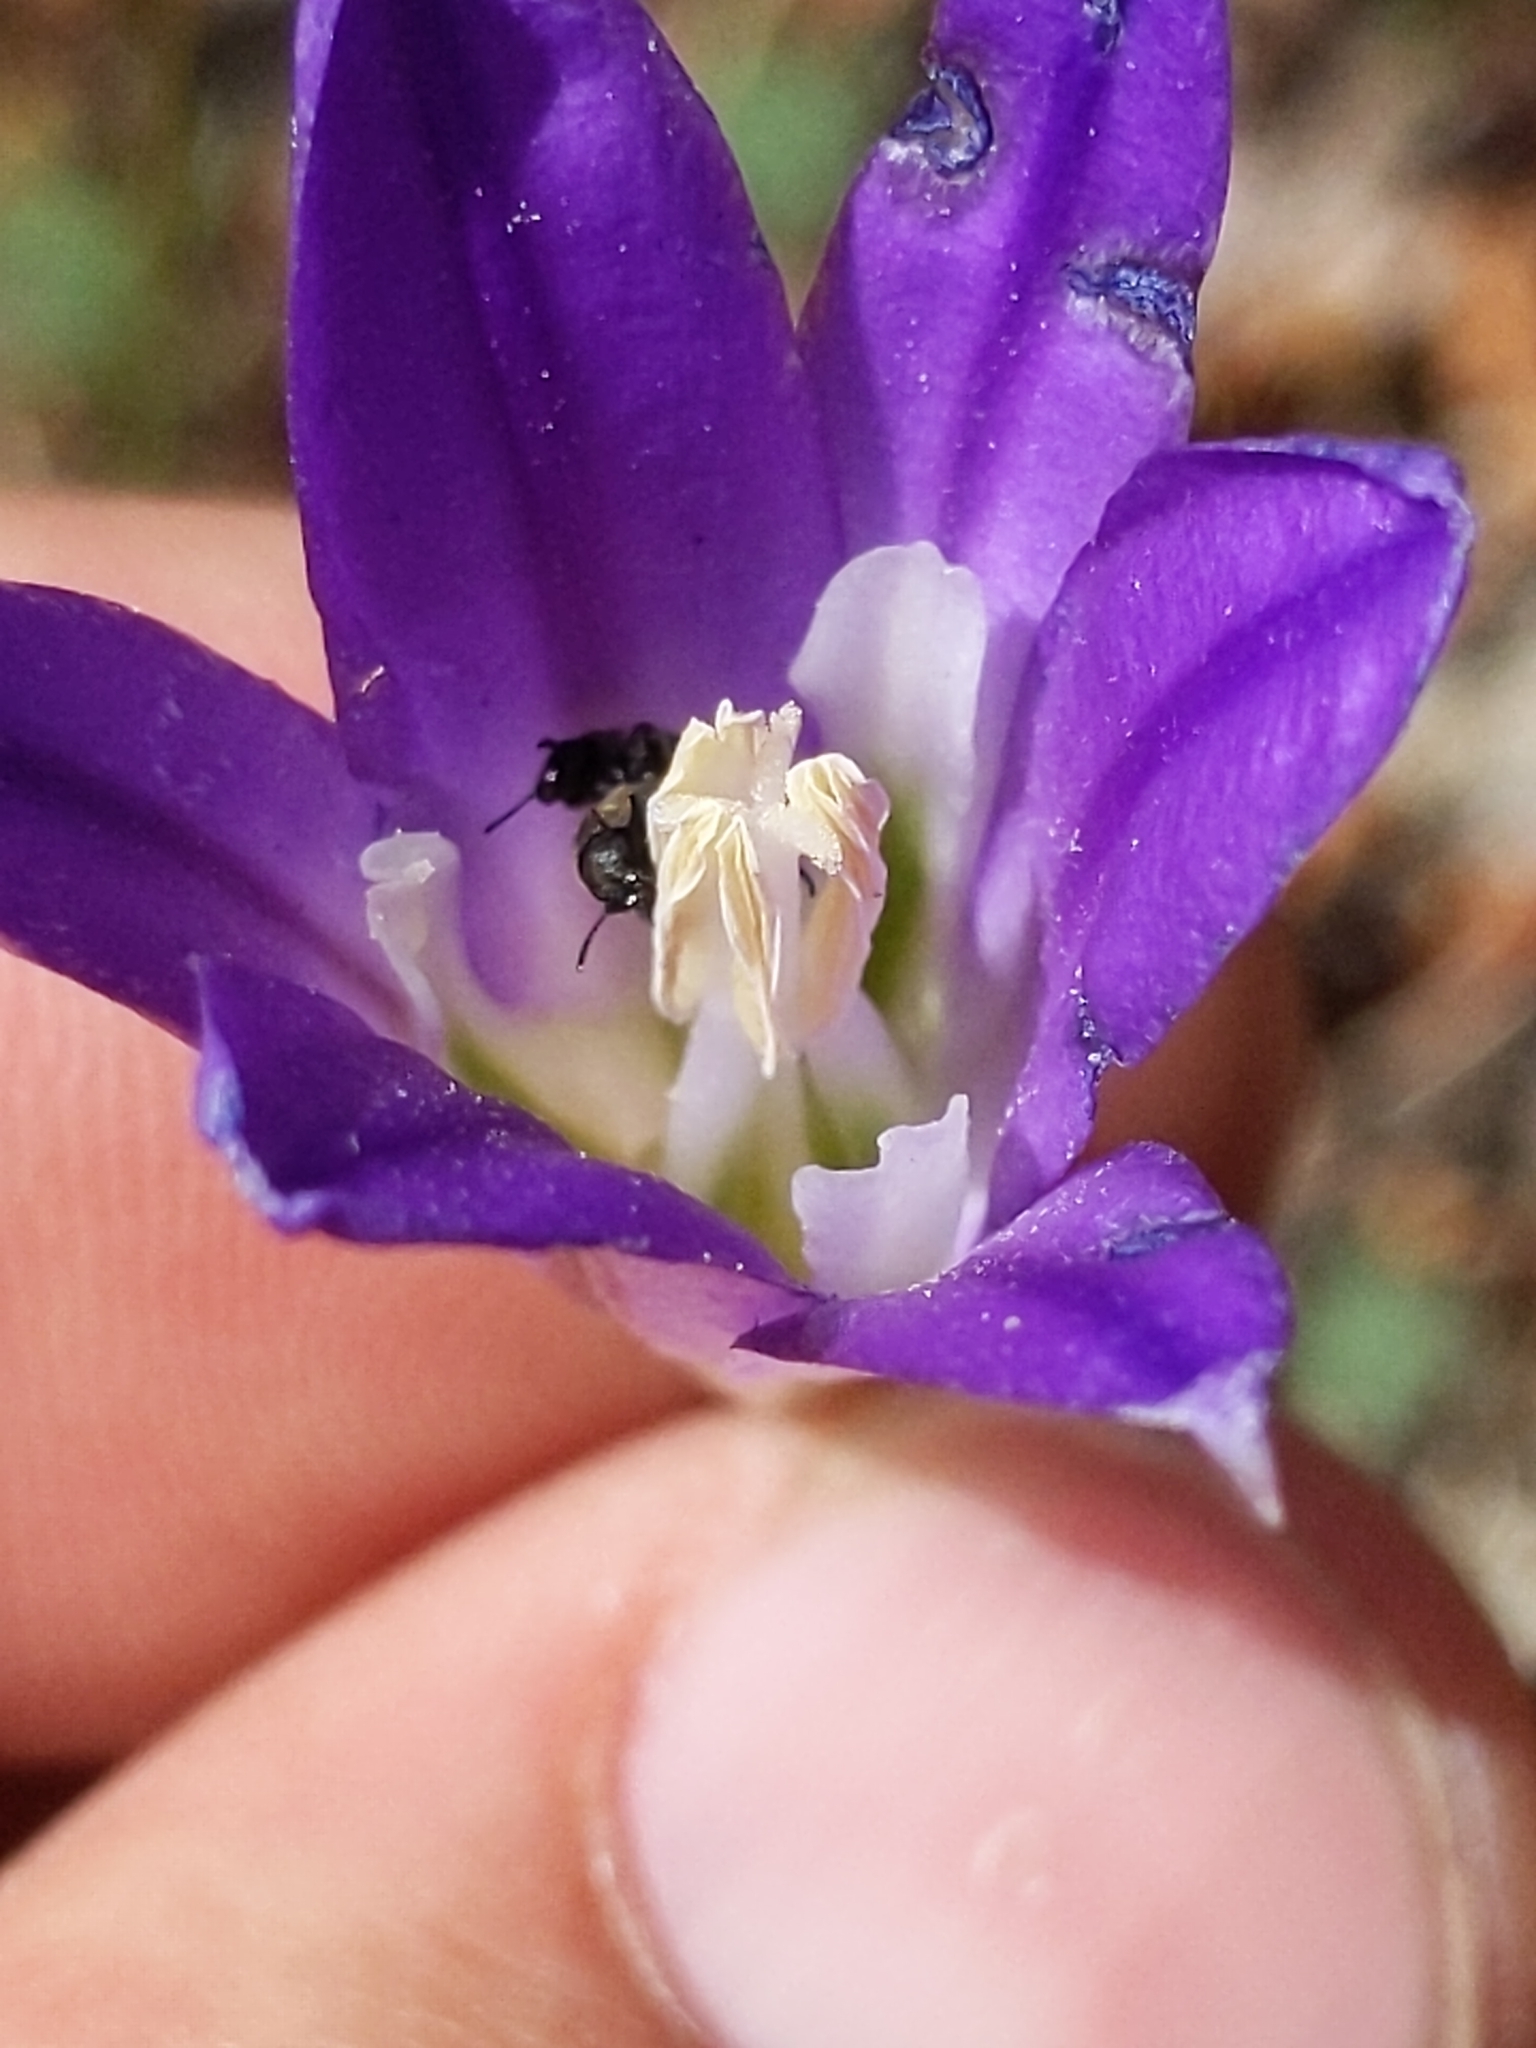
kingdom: Plantae
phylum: Tracheophyta
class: Liliopsida
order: Asparagales
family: Asparagaceae
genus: Brodiaea
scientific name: Brodiaea elegans
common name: Elegant cluster-lily
